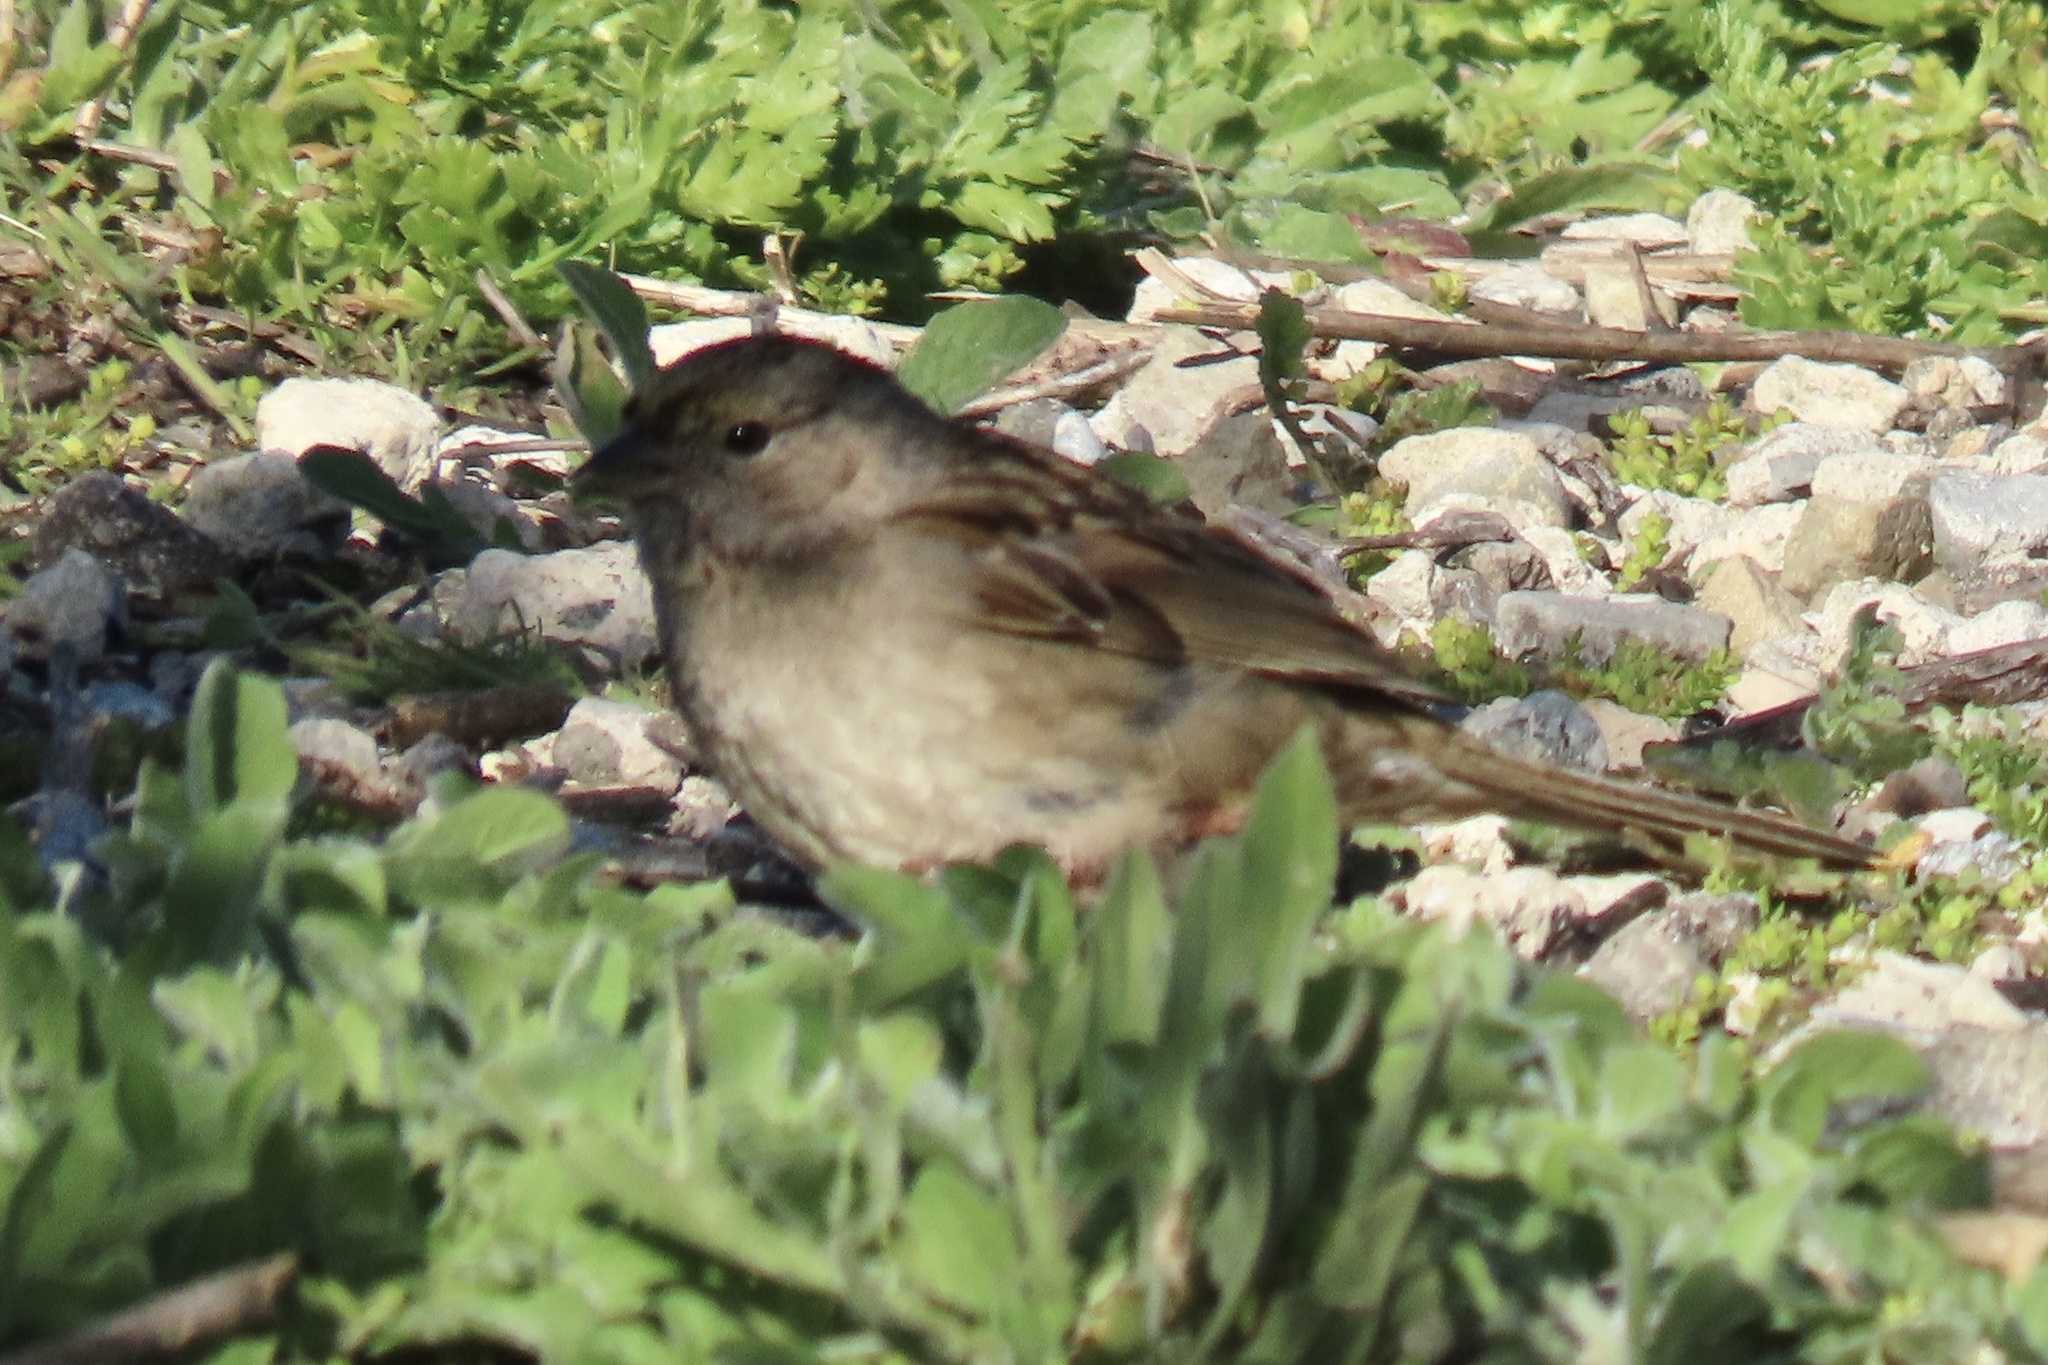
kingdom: Animalia
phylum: Chordata
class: Aves
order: Passeriformes
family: Passerellidae
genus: Zonotrichia
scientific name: Zonotrichia atricapilla
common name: Golden-crowned sparrow
